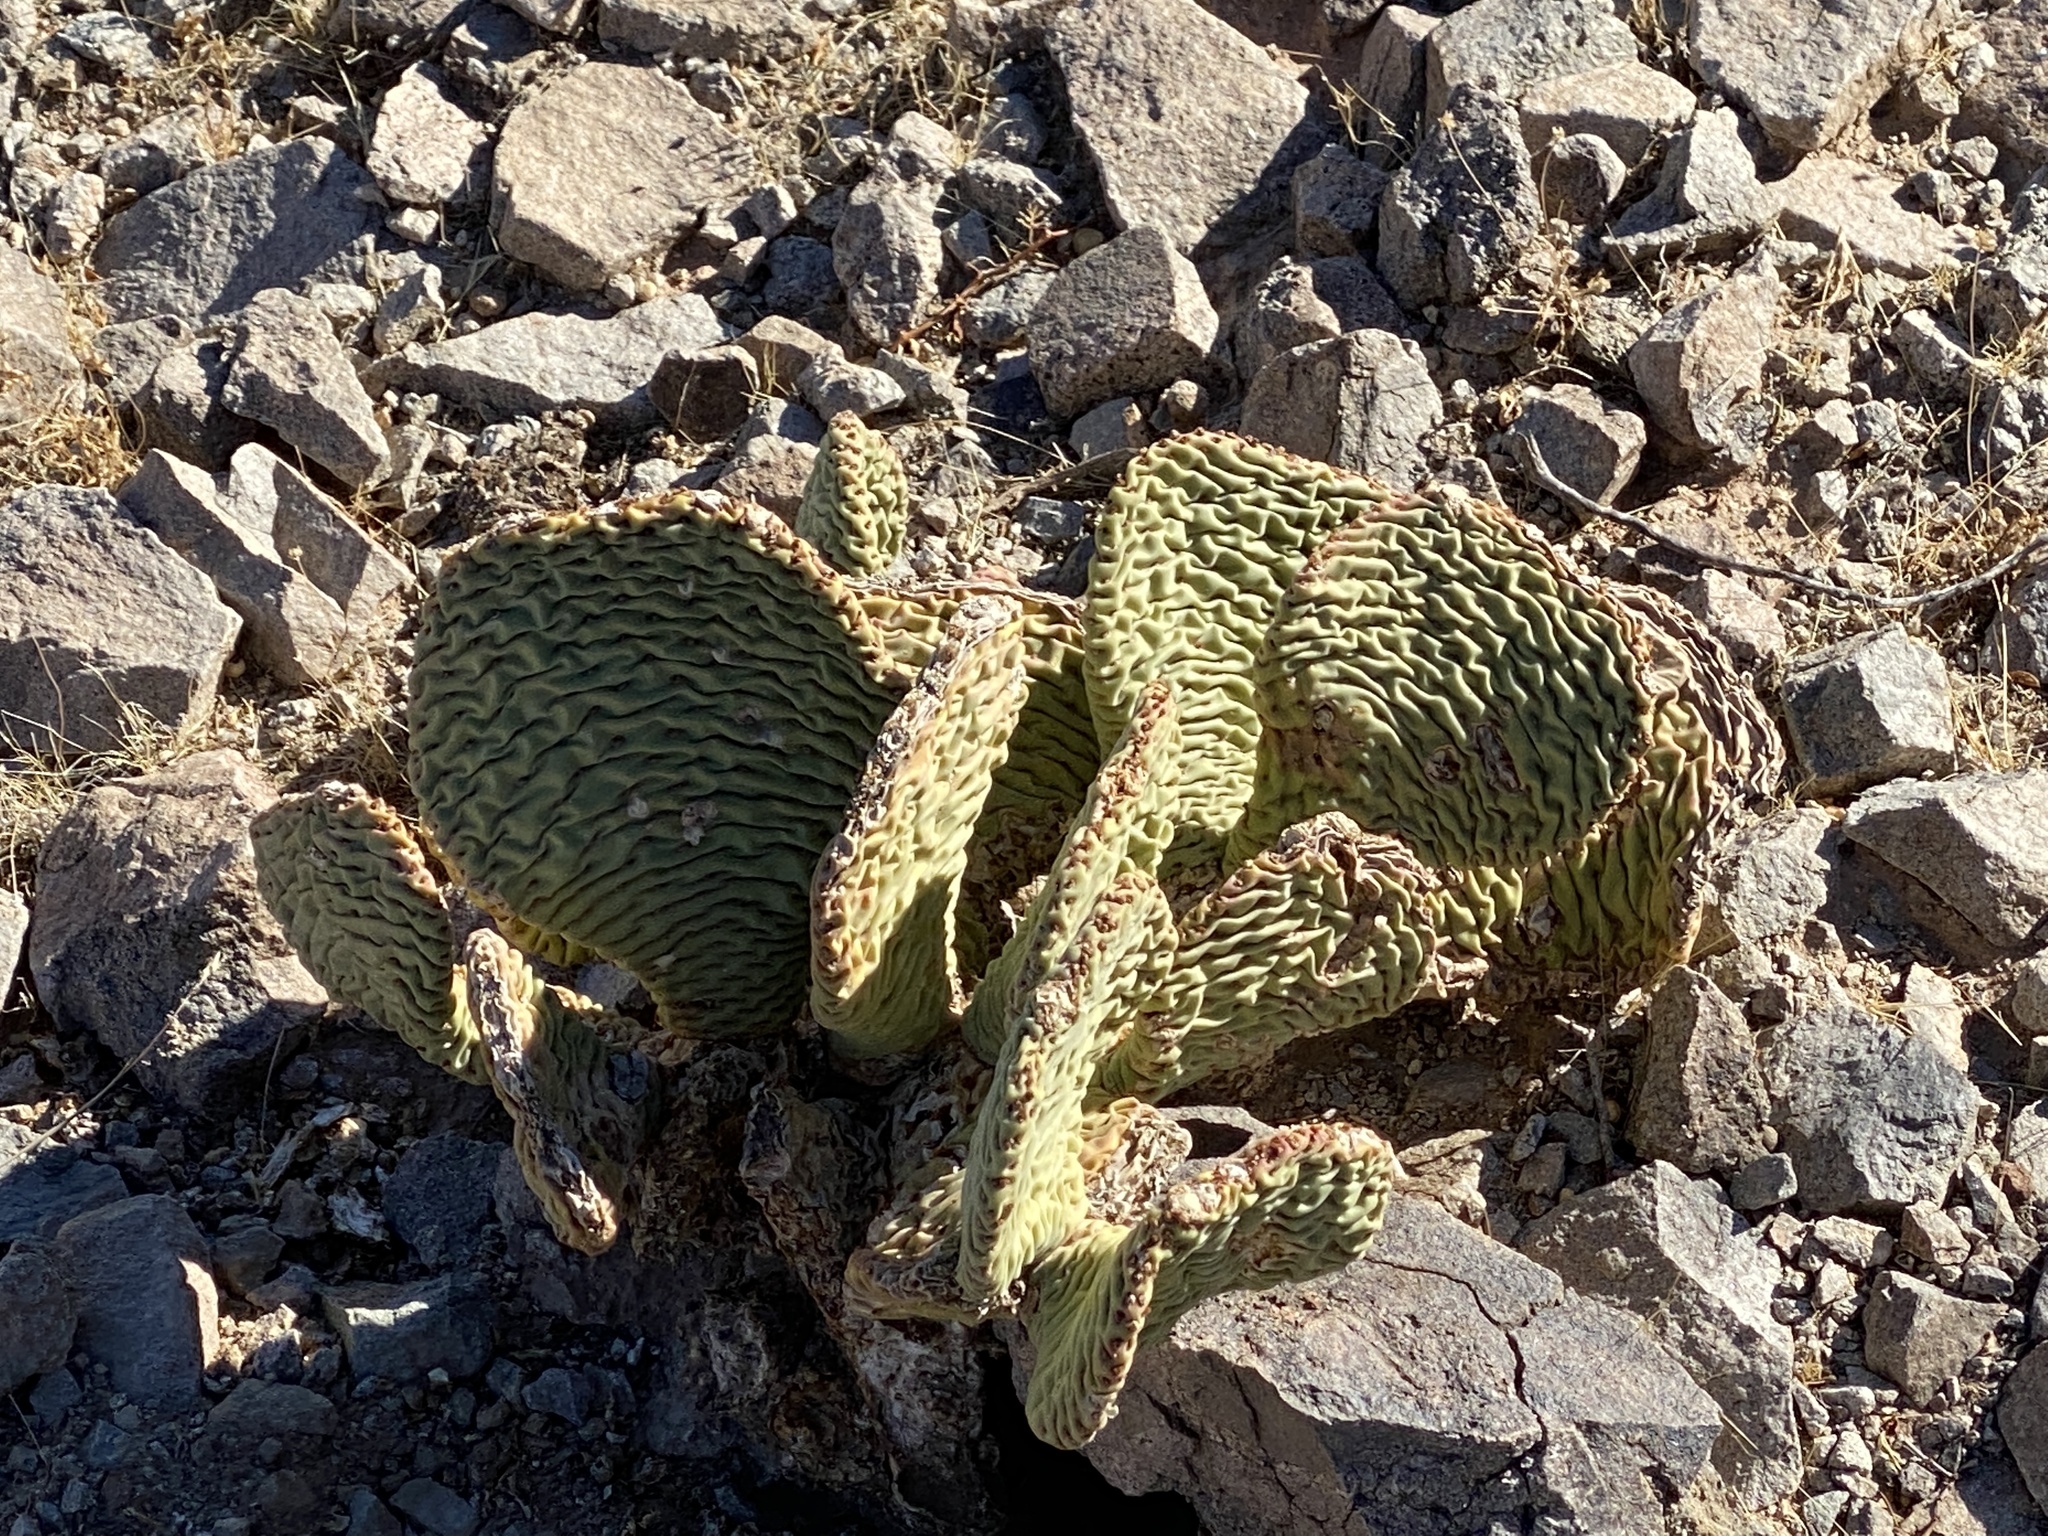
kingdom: Plantae
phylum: Tracheophyta
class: Magnoliopsida
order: Caryophyllales
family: Cactaceae
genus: Opuntia
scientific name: Opuntia basilaris
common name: Beavertail prickly-pear
